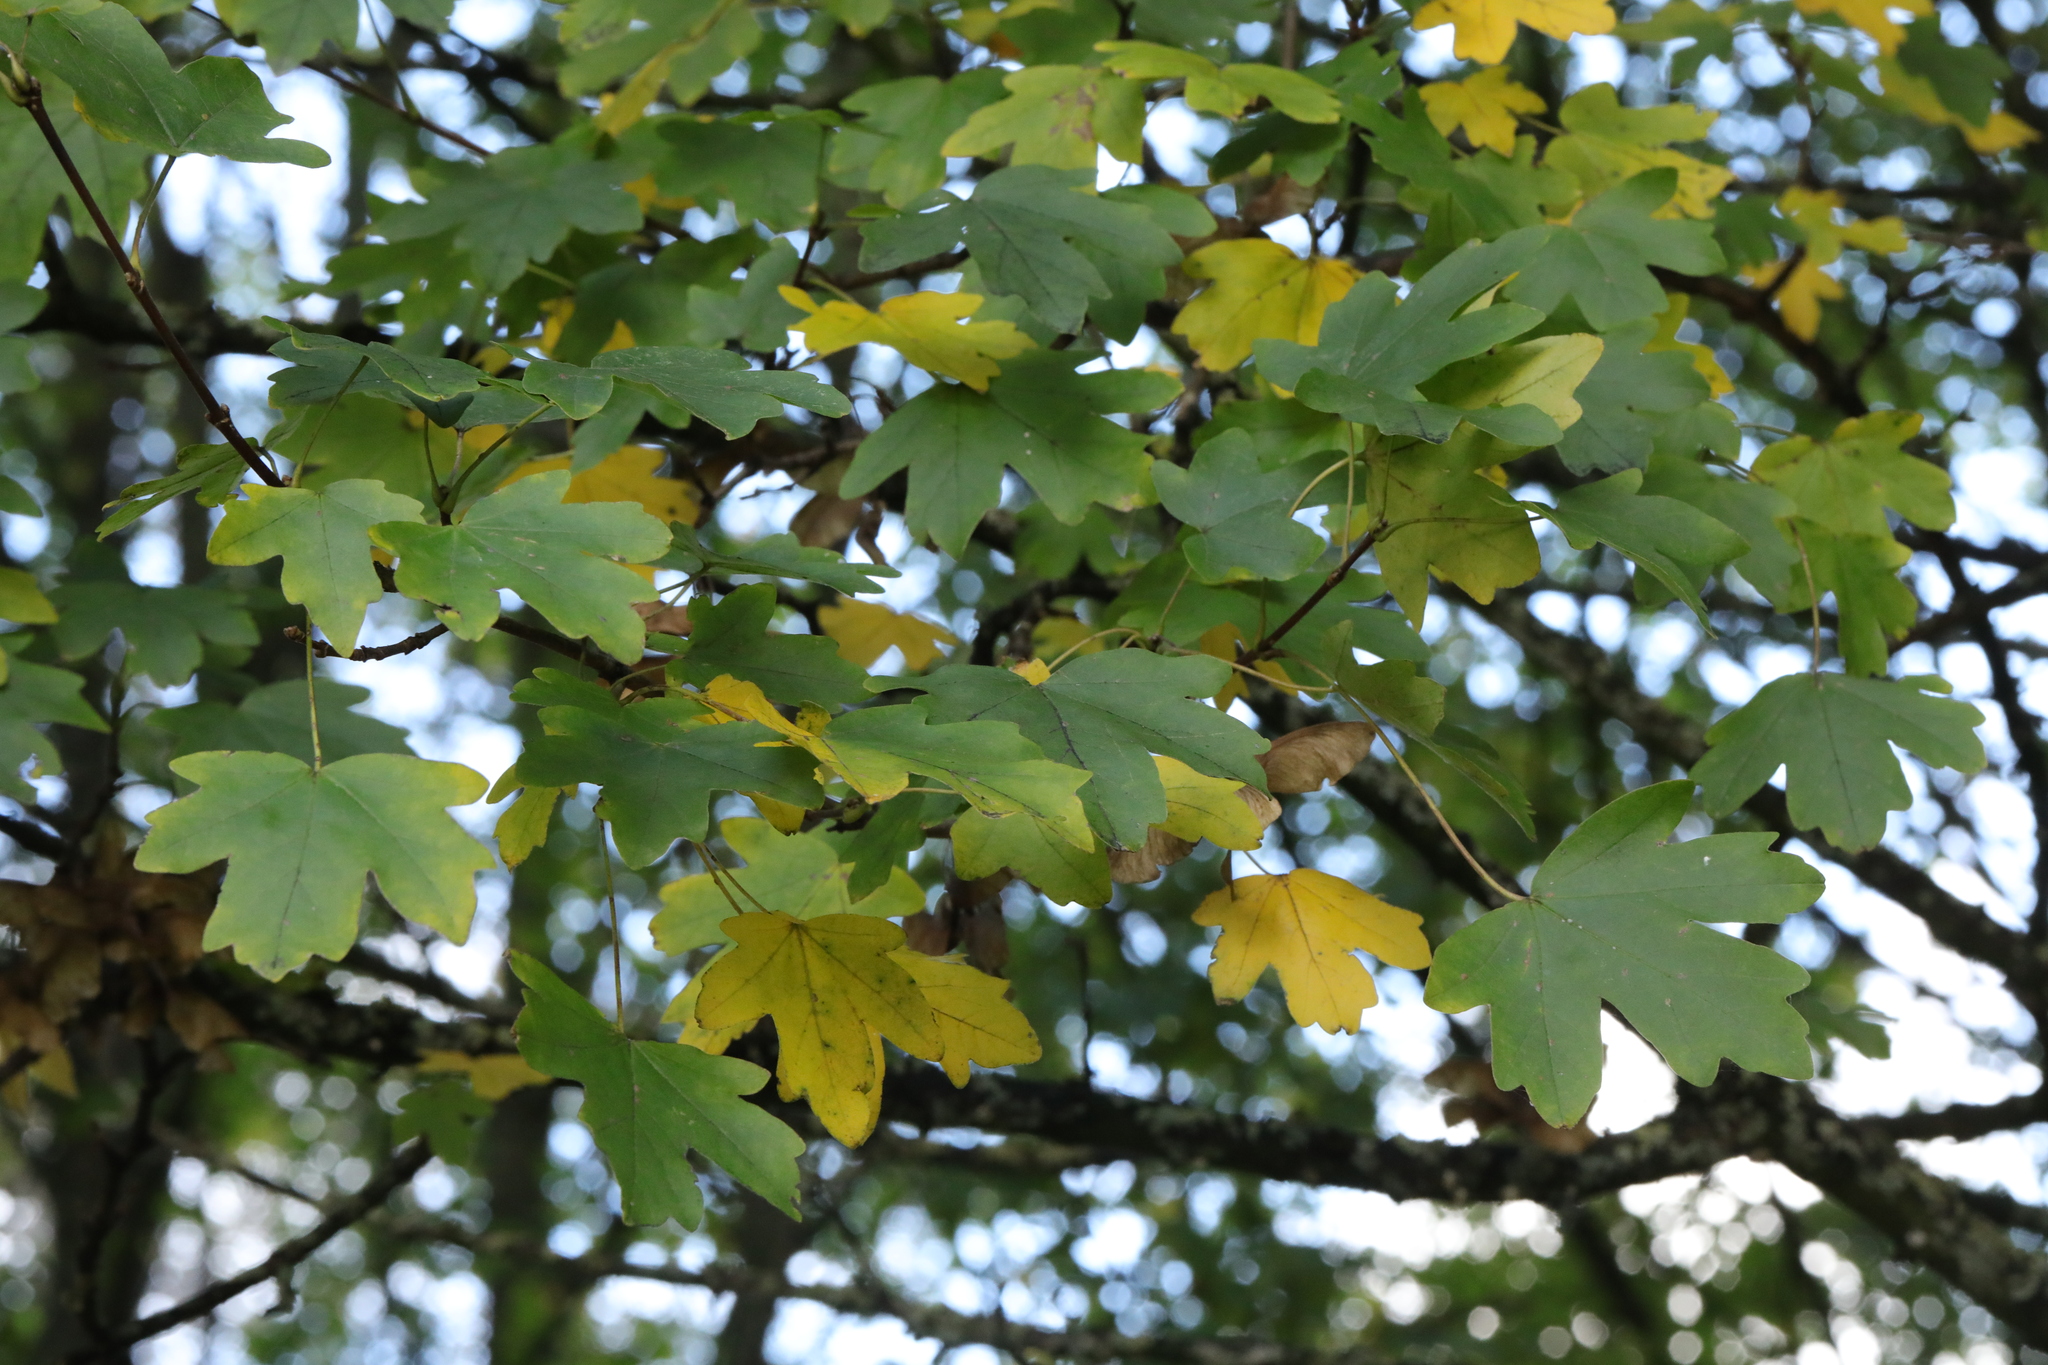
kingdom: Plantae
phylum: Tracheophyta
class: Magnoliopsida
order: Sapindales
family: Sapindaceae
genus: Acer
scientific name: Acer campestre
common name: Field maple
